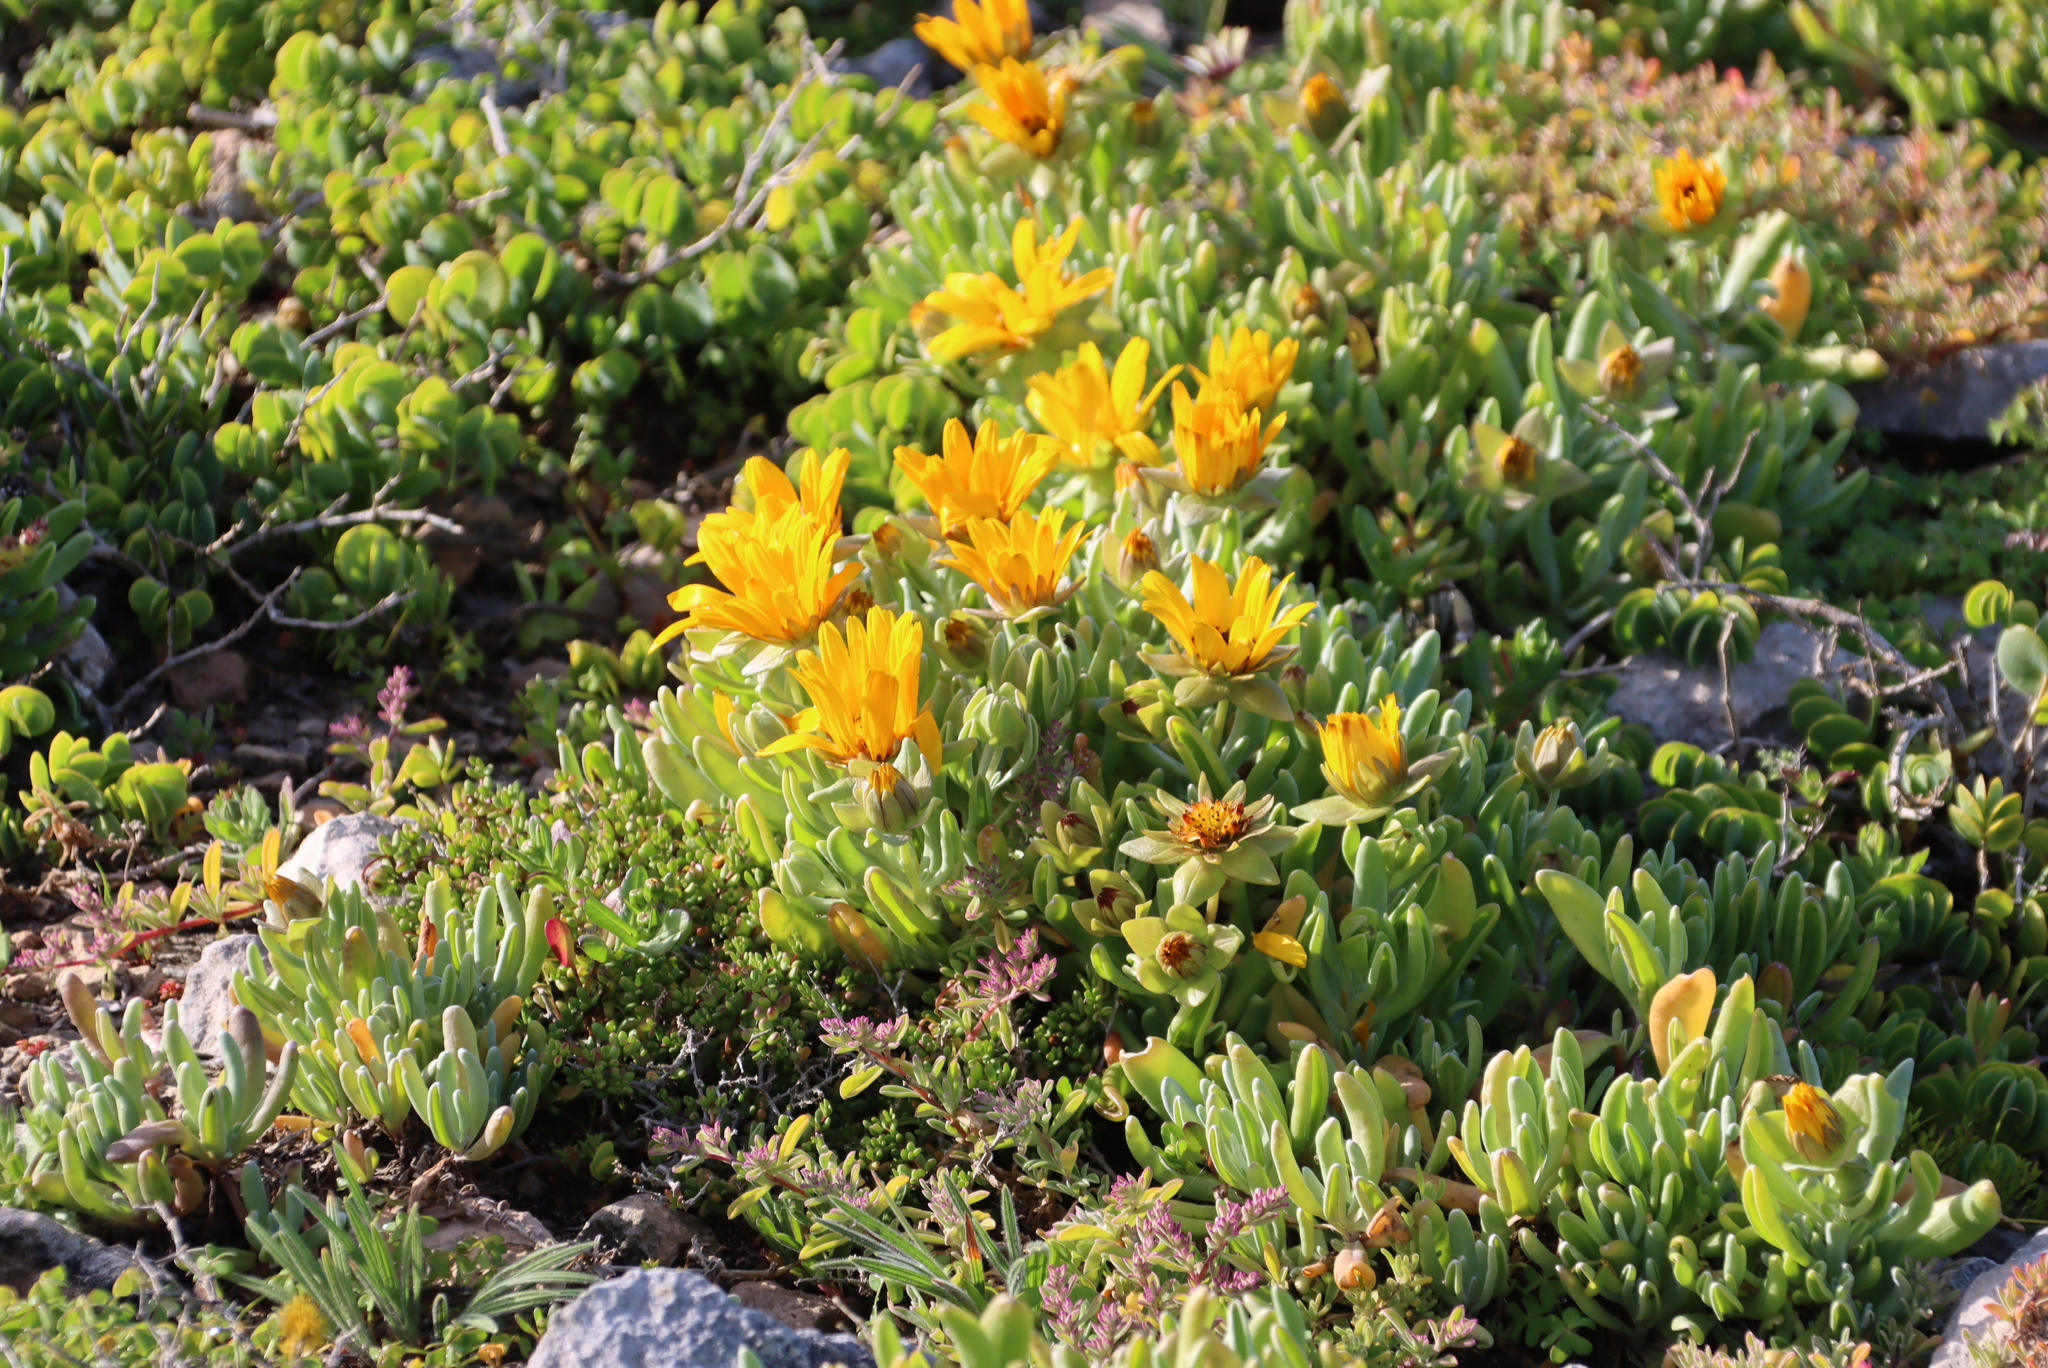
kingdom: Plantae
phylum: Tracheophyta
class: Magnoliopsida
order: Asterales
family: Asteraceae
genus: Didelta
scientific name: Didelta carnosa
